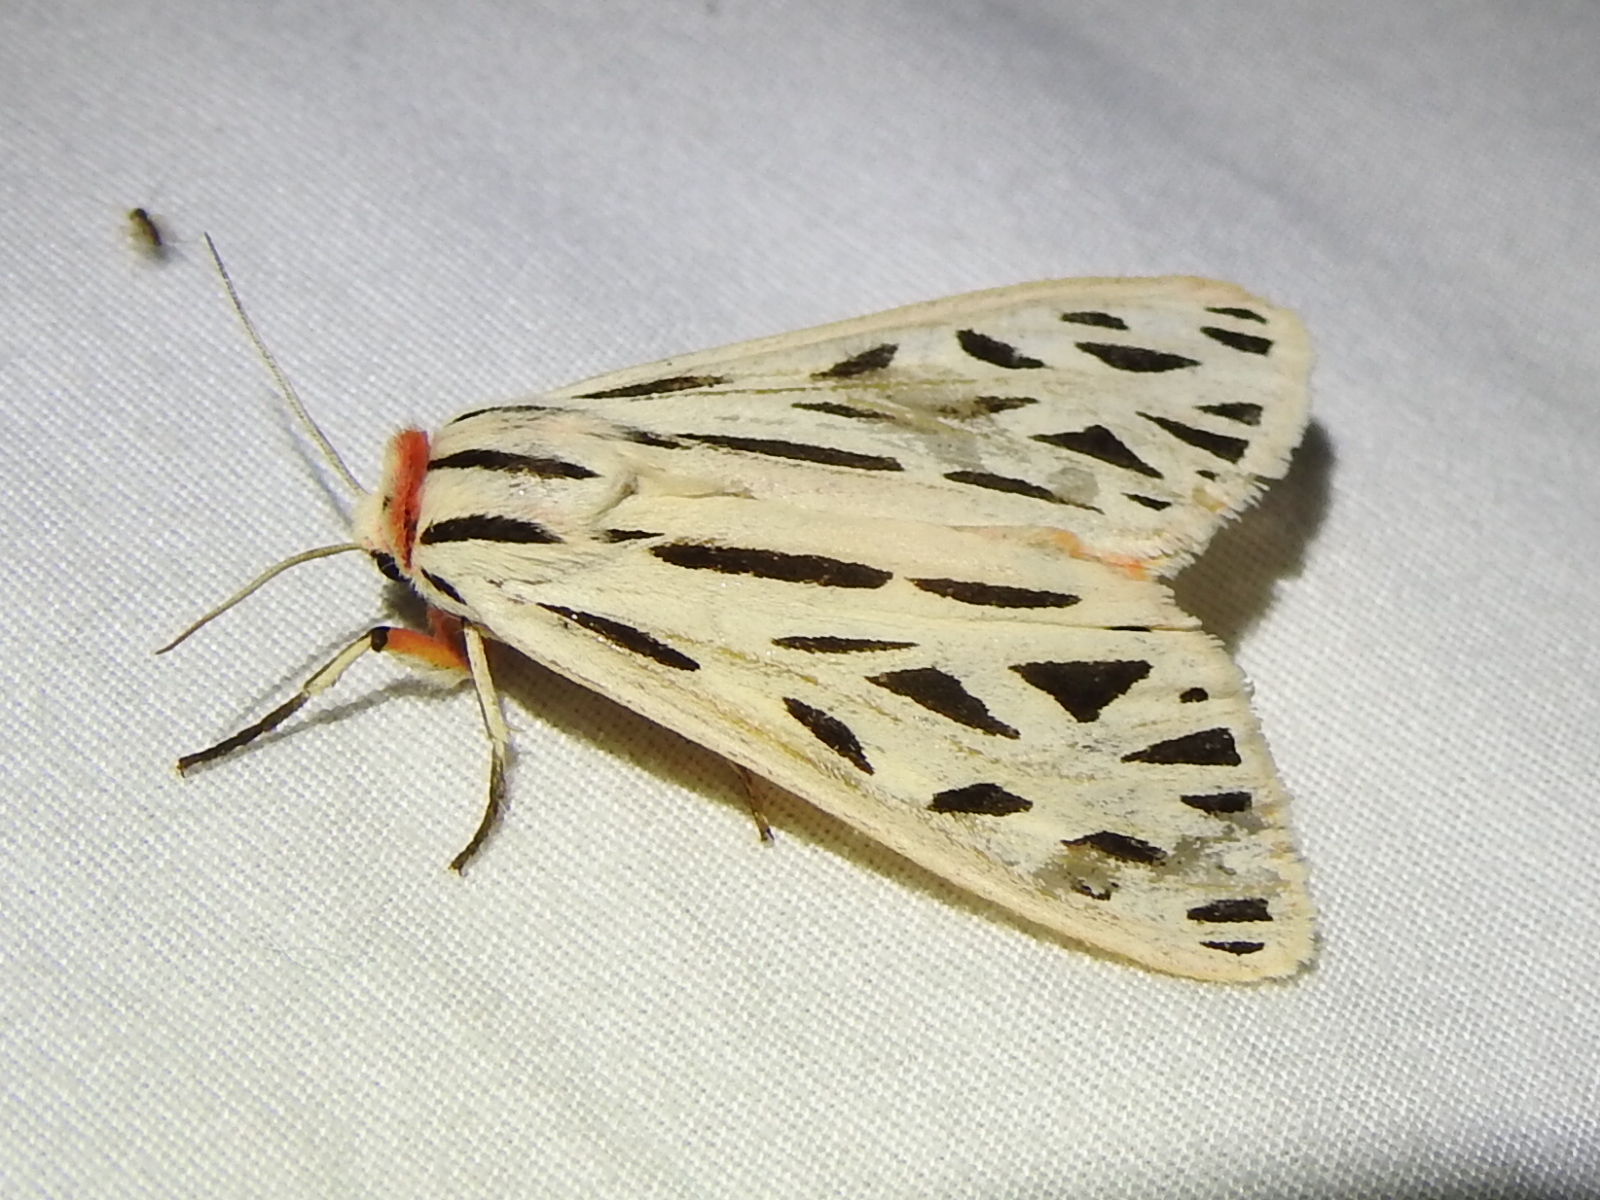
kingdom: Animalia
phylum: Arthropoda
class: Insecta
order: Lepidoptera
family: Erebidae
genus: Apantesis
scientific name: Apantesis arge
